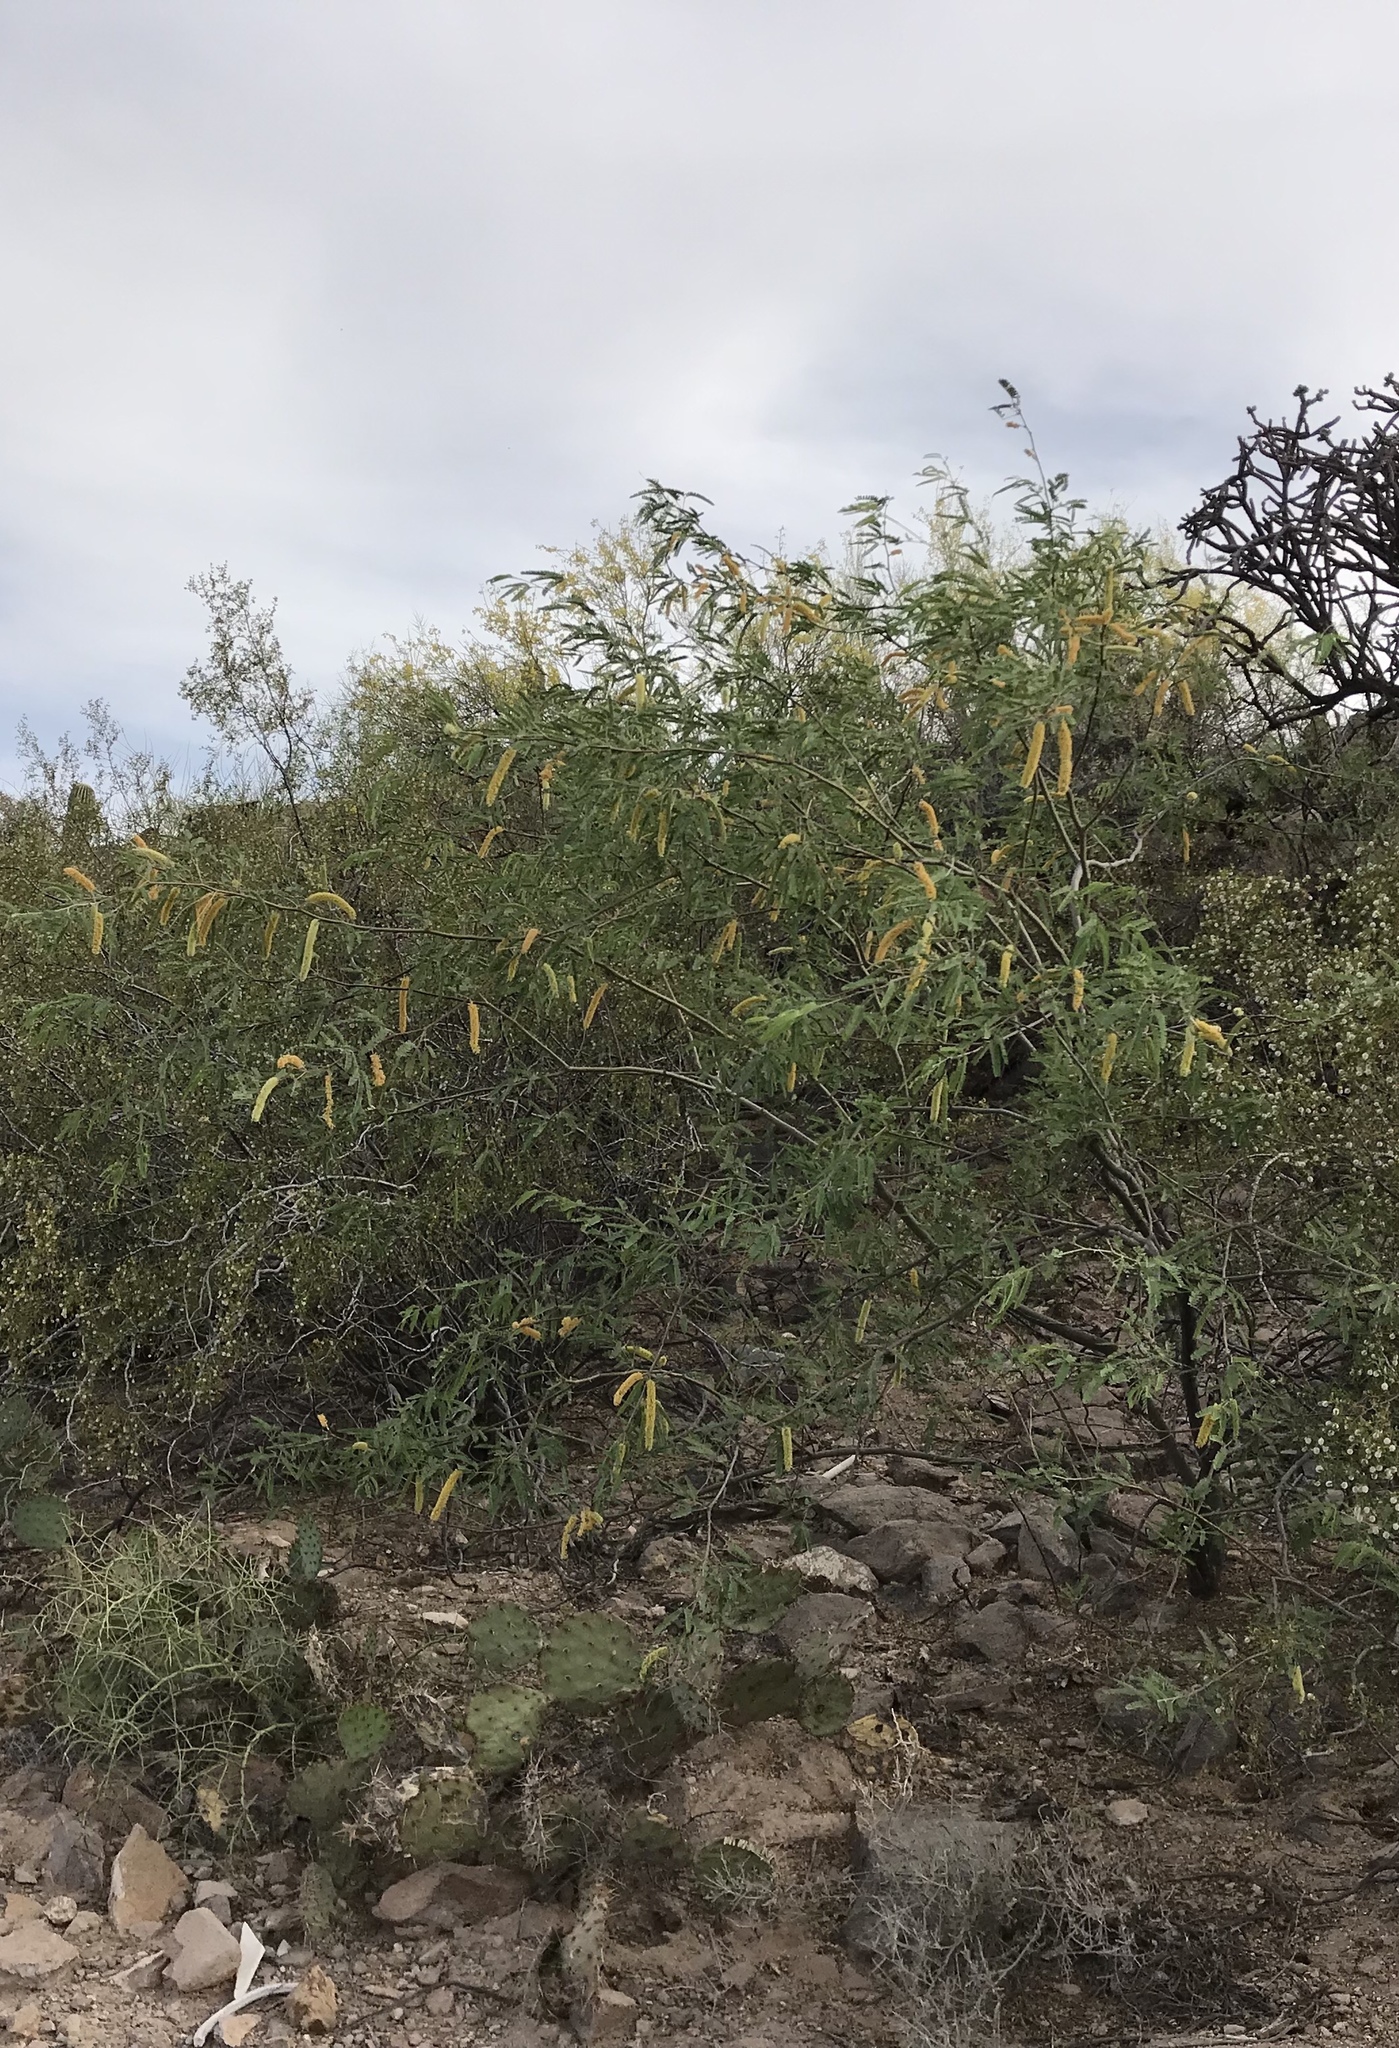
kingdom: Plantae
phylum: Tracheophyta
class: Magnoliopsida
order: Fabales
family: Fabaceae
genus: Prosopis
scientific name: Prosopis velutina
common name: Velvet mesquite
